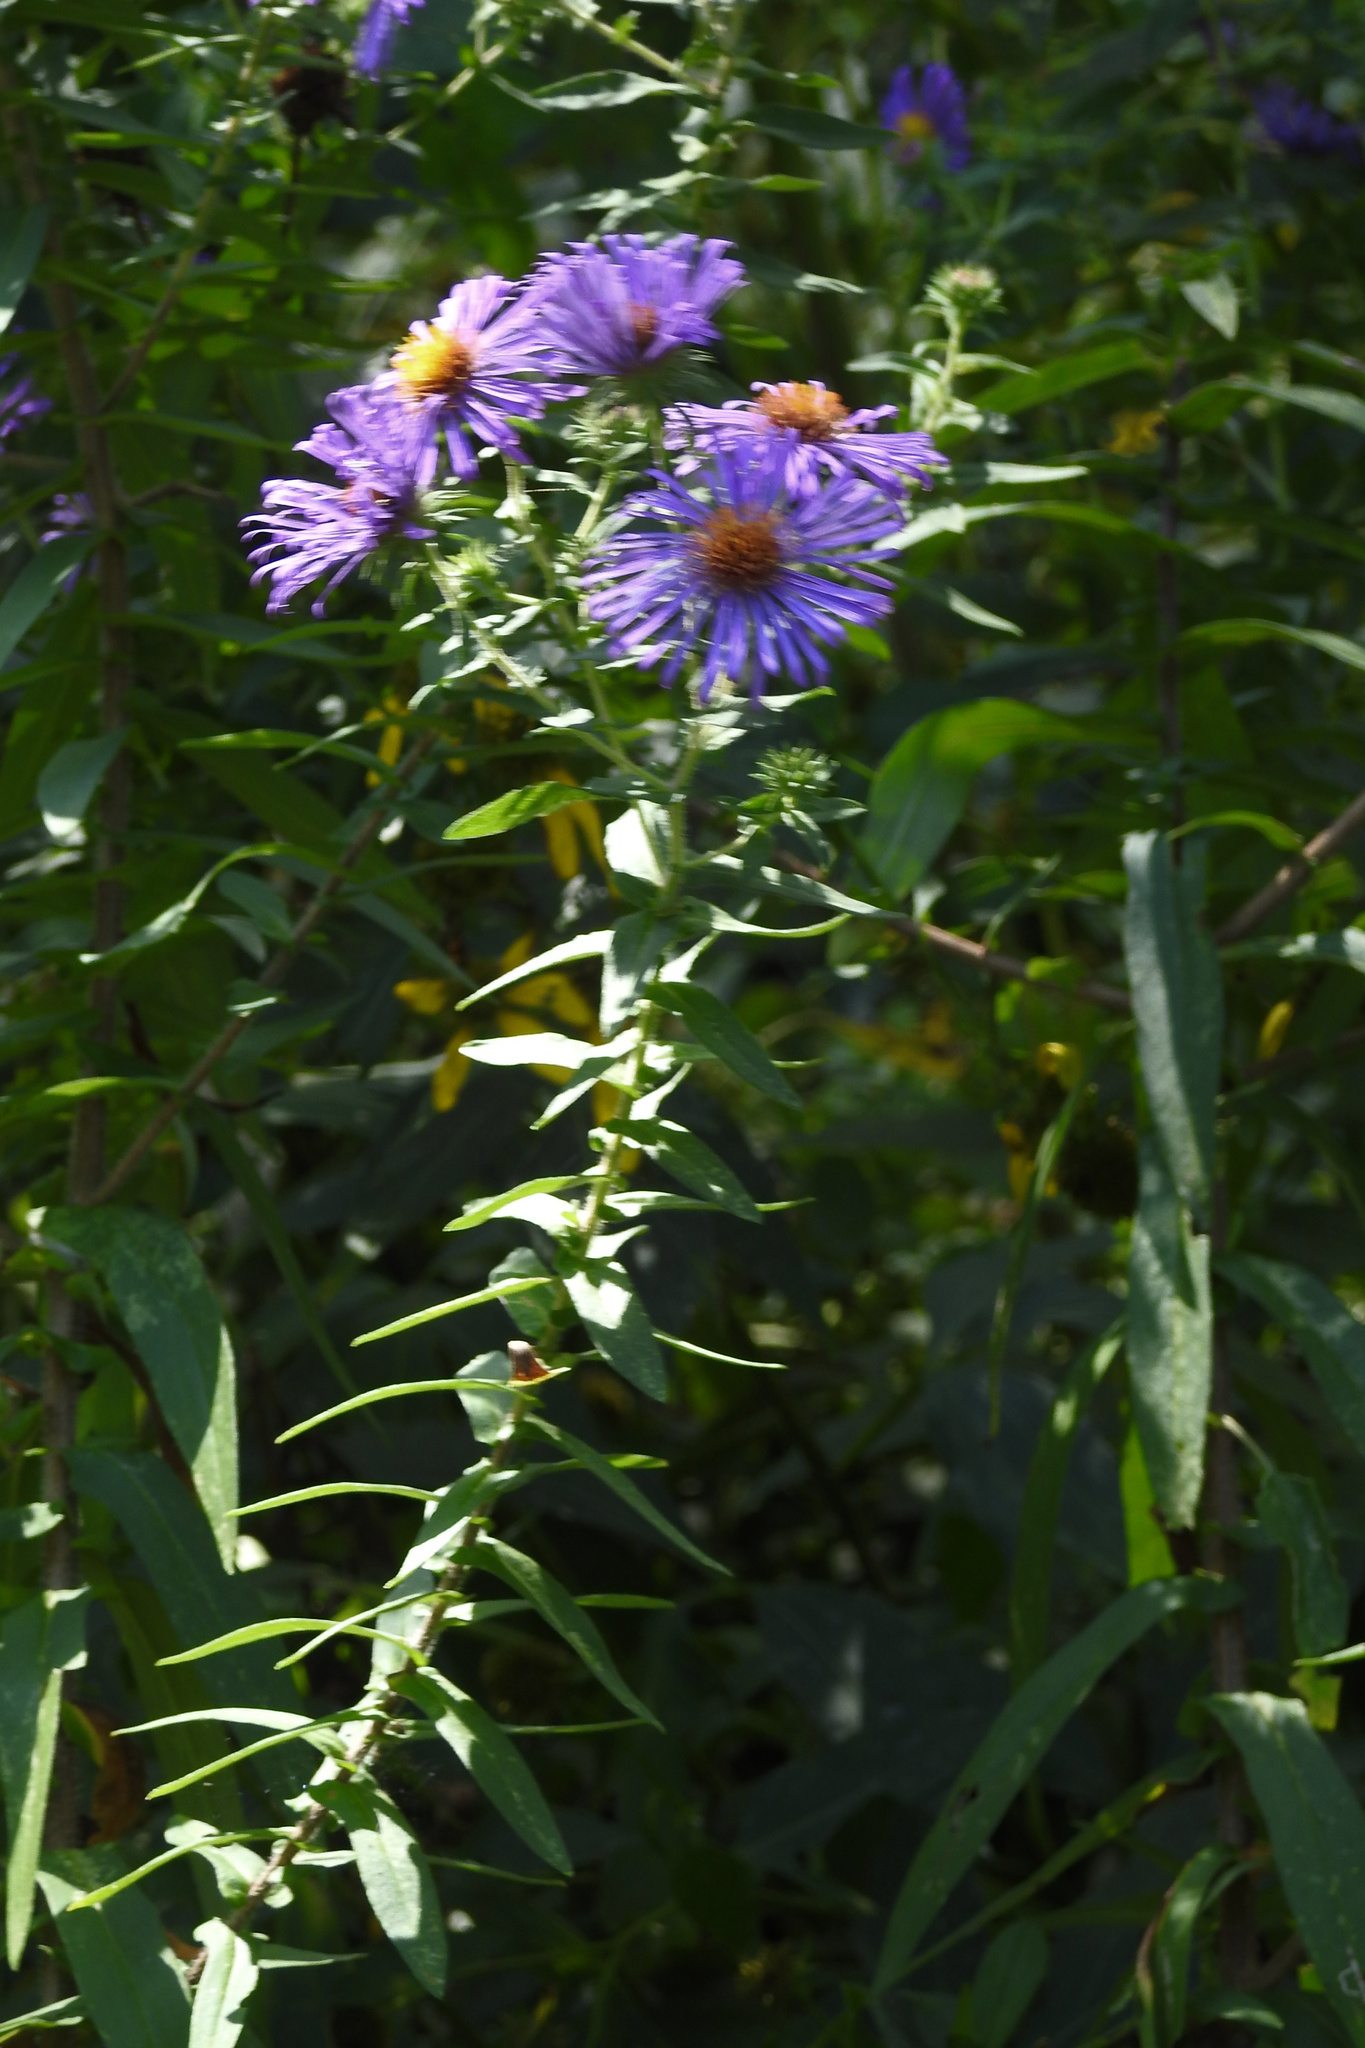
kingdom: Plantae
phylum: Tracheophyta
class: Magnoliopsida
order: Asterales
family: Asteraceae
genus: Symphyotrichum
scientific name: Symphyotrichum novae-angliae
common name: Michaelmas daisy
